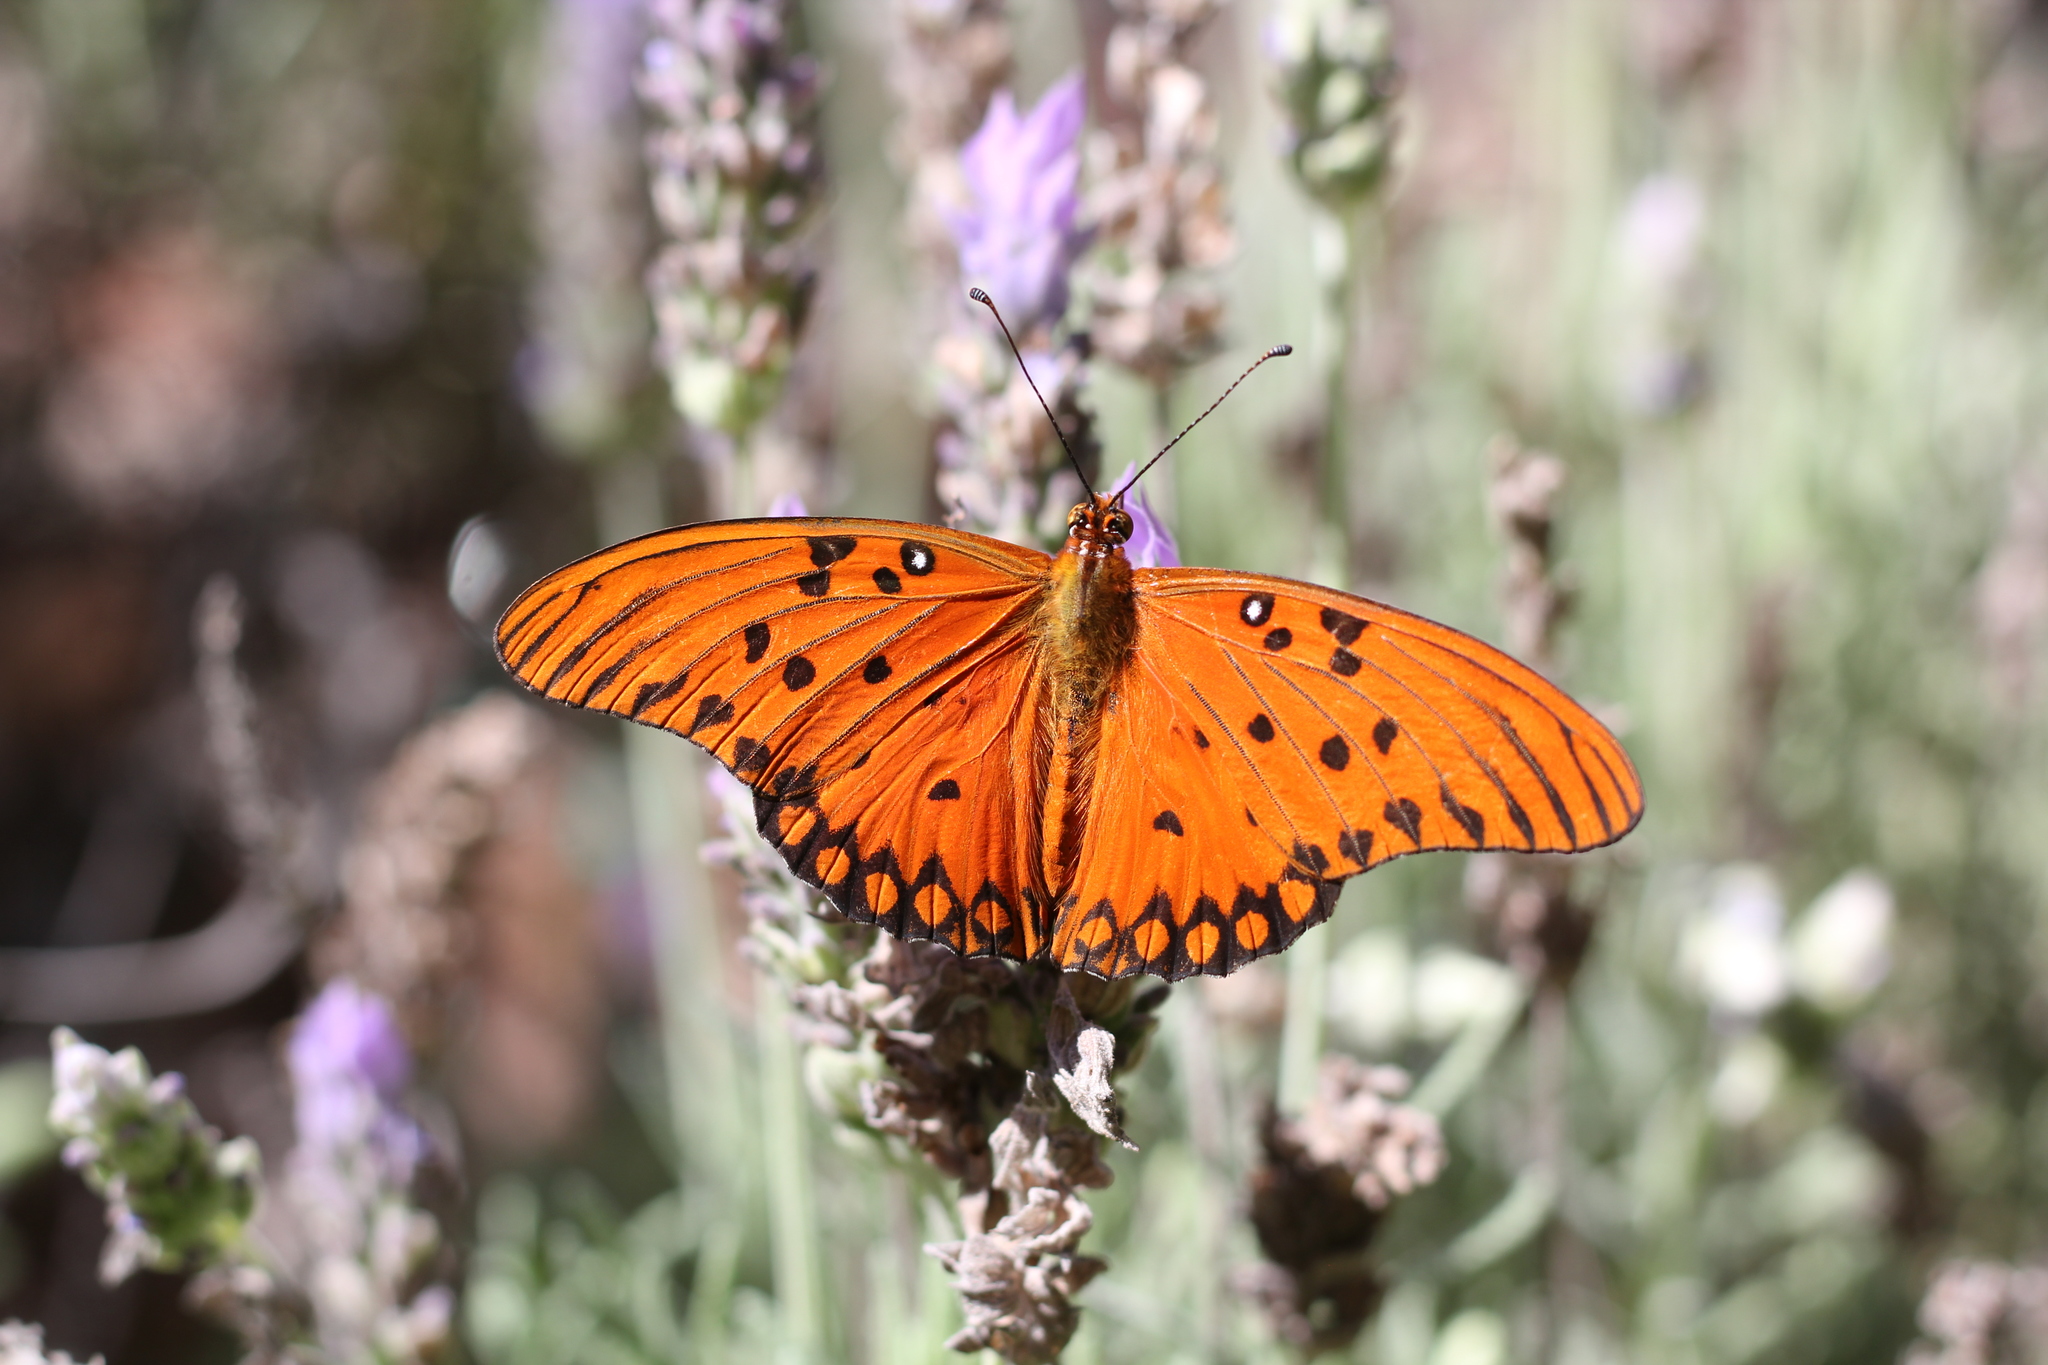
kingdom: Animalia
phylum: Arthropoda
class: Insecta
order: Lepidoptera
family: Nymphalidae
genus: Dione
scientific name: Dione vanillae
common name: Gulf fritillary
